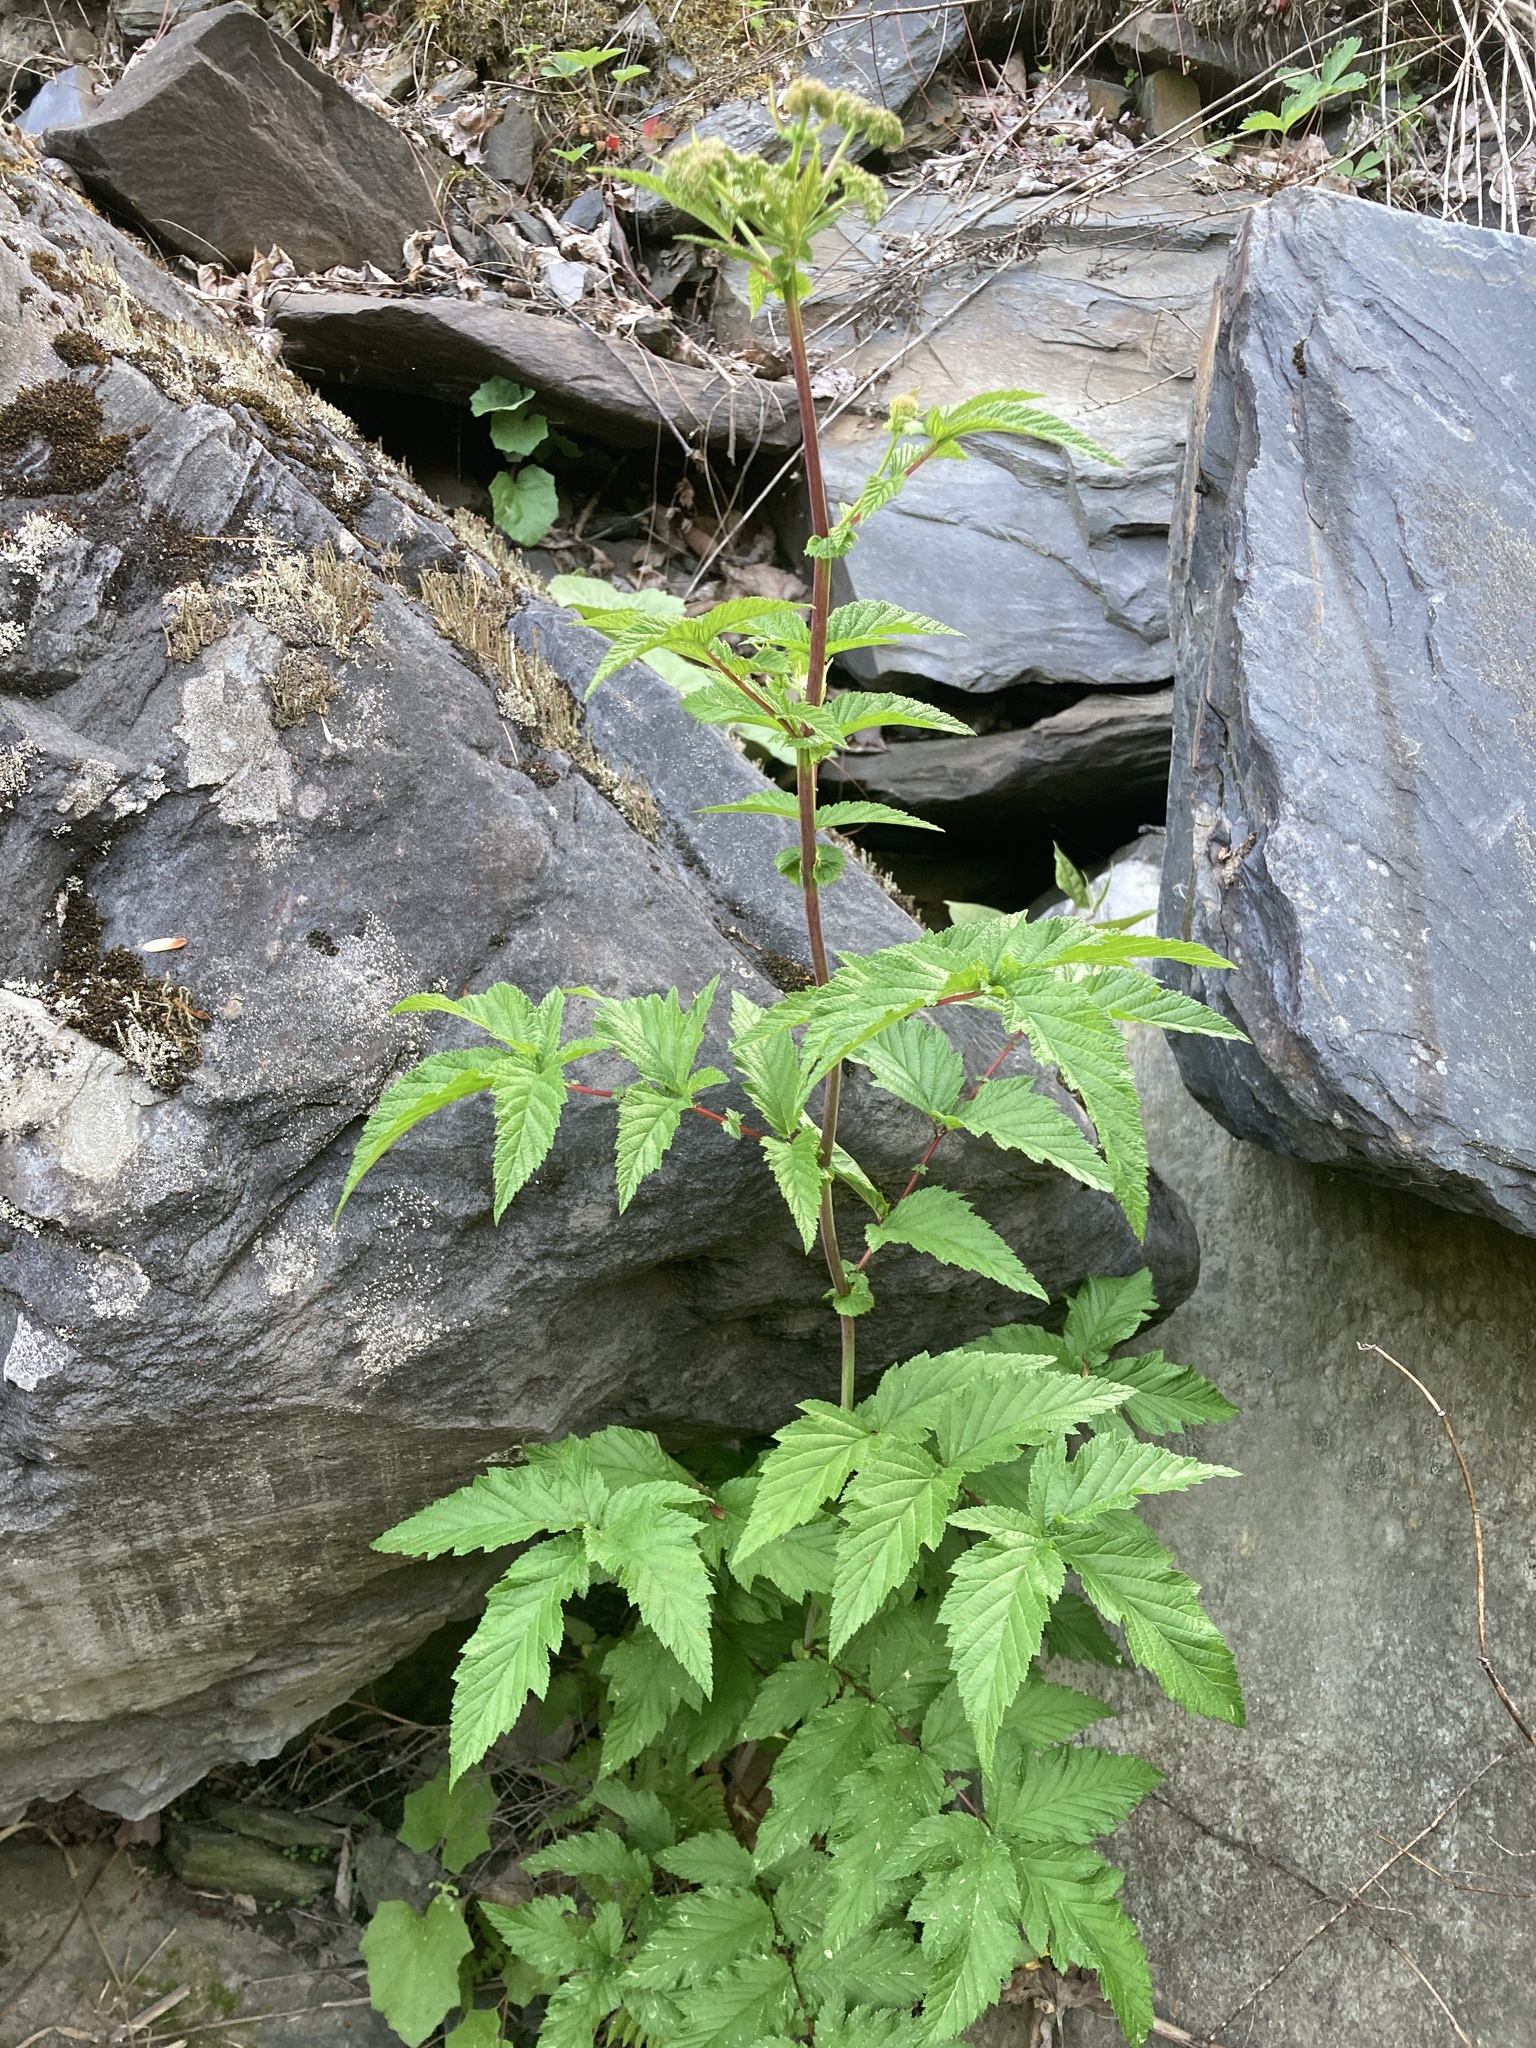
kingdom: Plantae
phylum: Tracheophyta
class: Magnoliopsida
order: Rosales
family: Rosaceae
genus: Filipendula
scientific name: Filipendula ulmaria
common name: Meadowsweet
